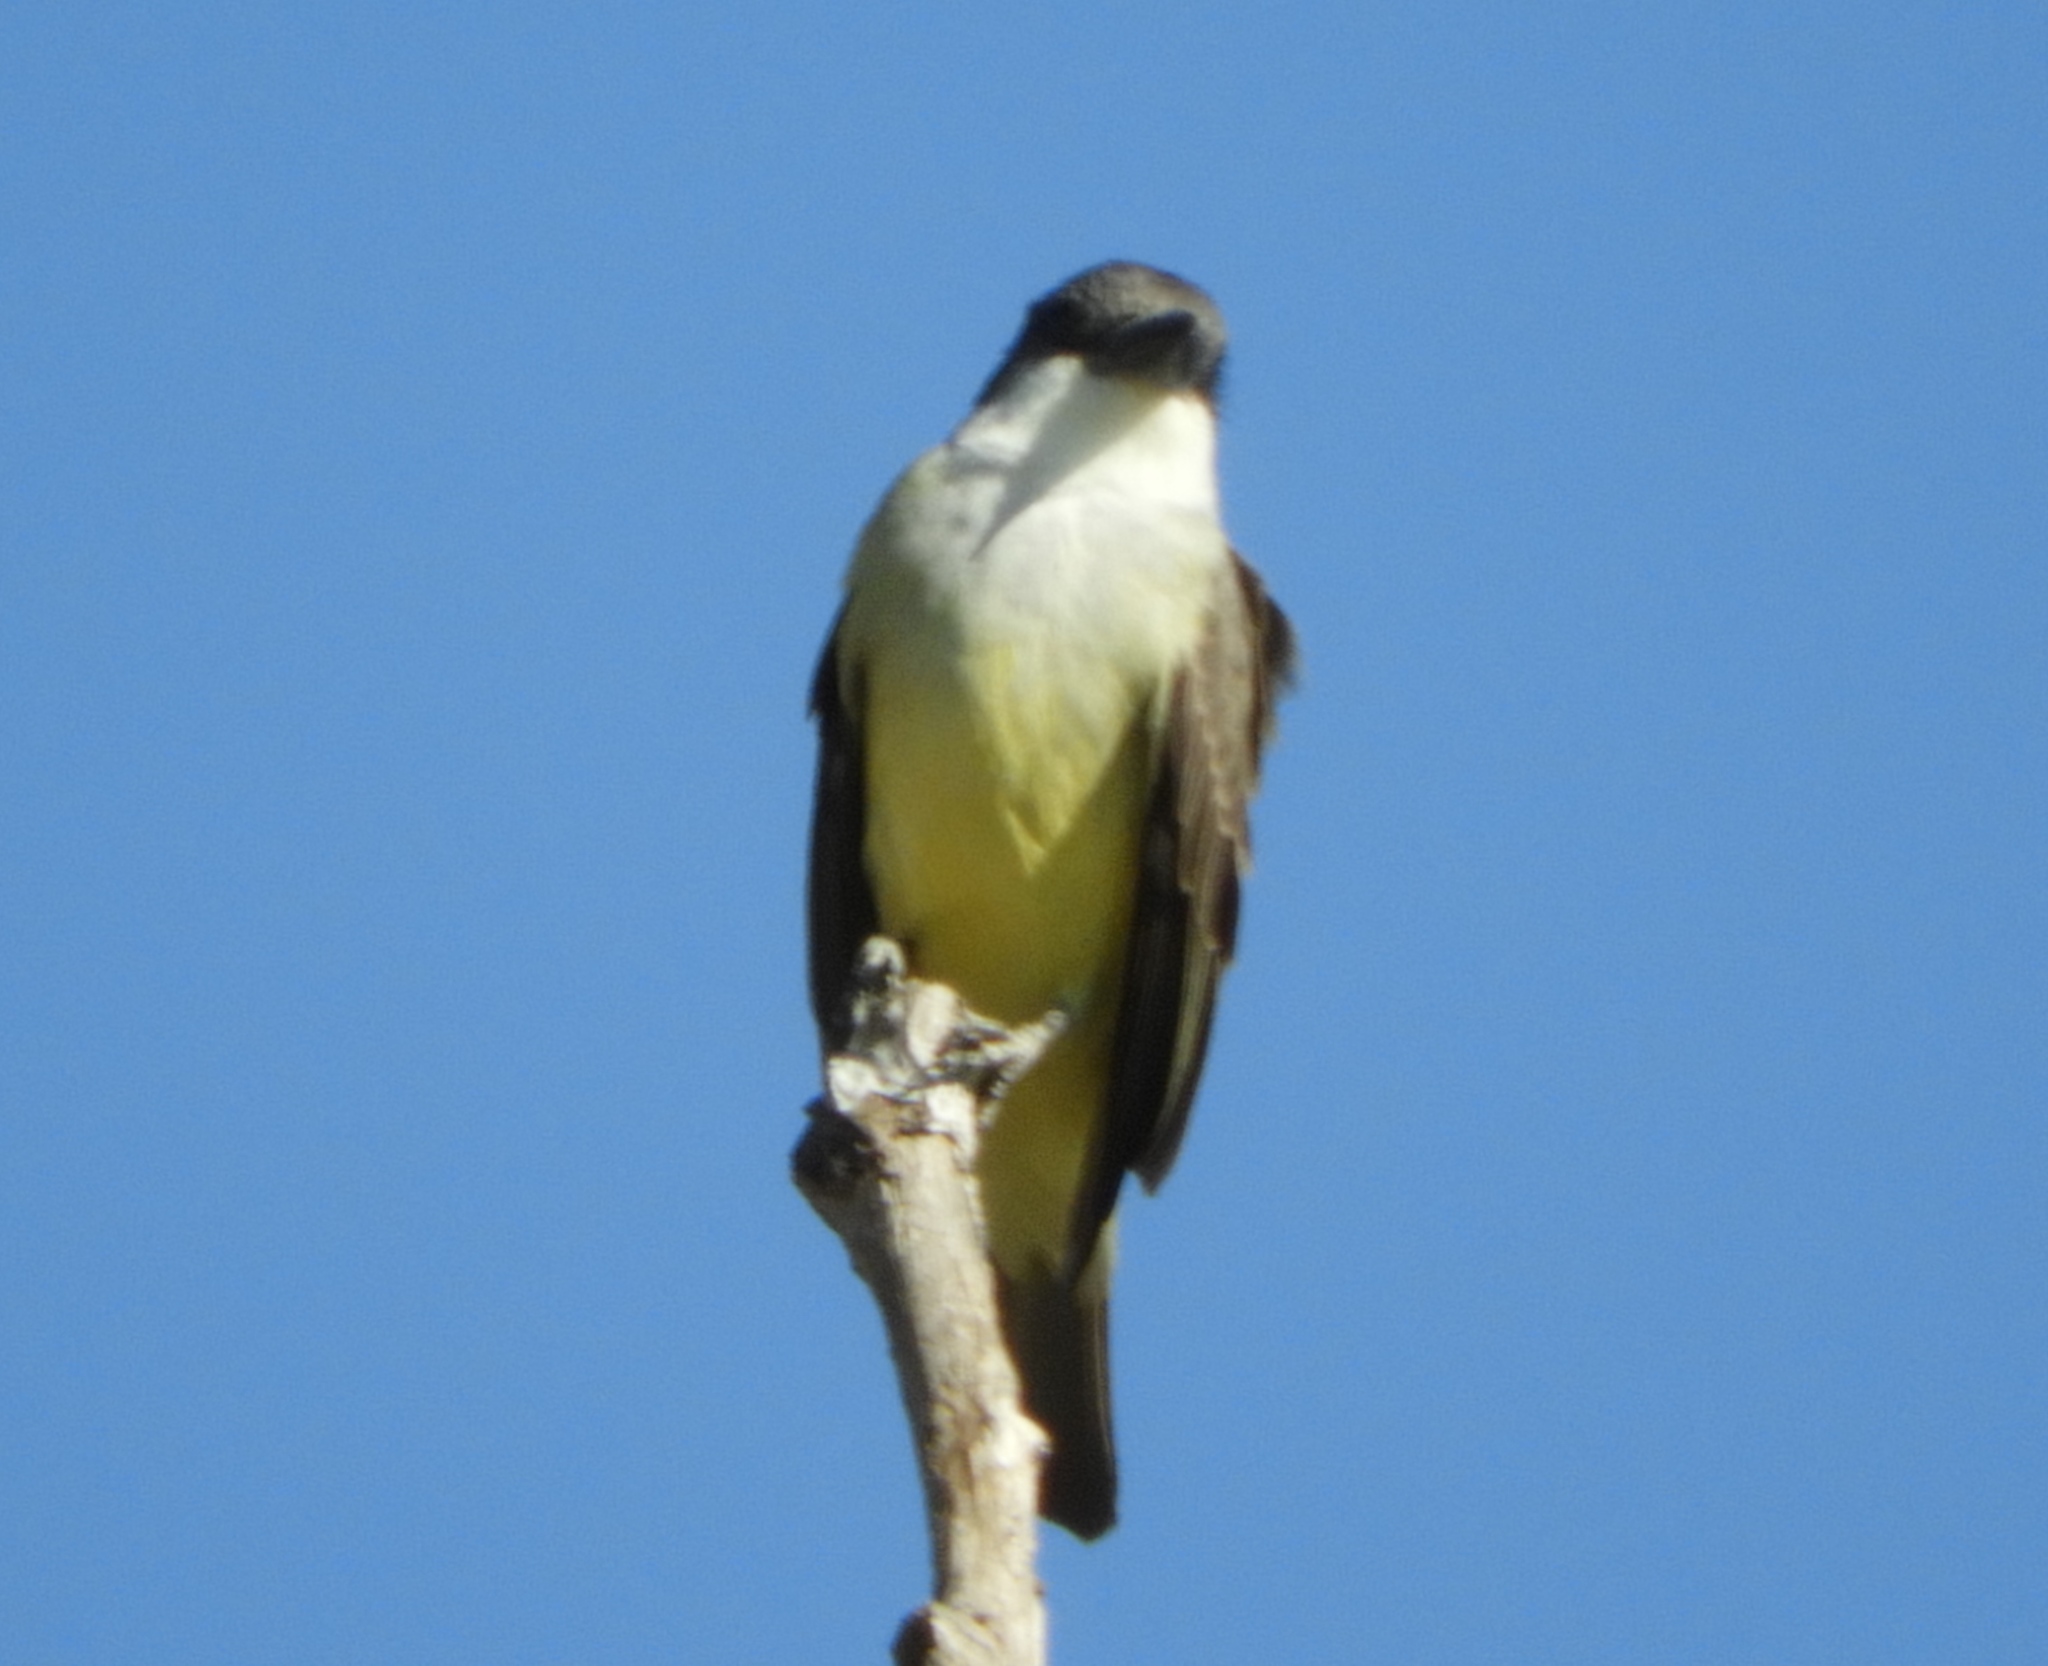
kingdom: Animalia
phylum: Chordata
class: Aves
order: Passeriformes
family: Tyrannidae
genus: Tyrannus
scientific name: Tyrannus crassirostris
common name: Thick-billed kingbird
